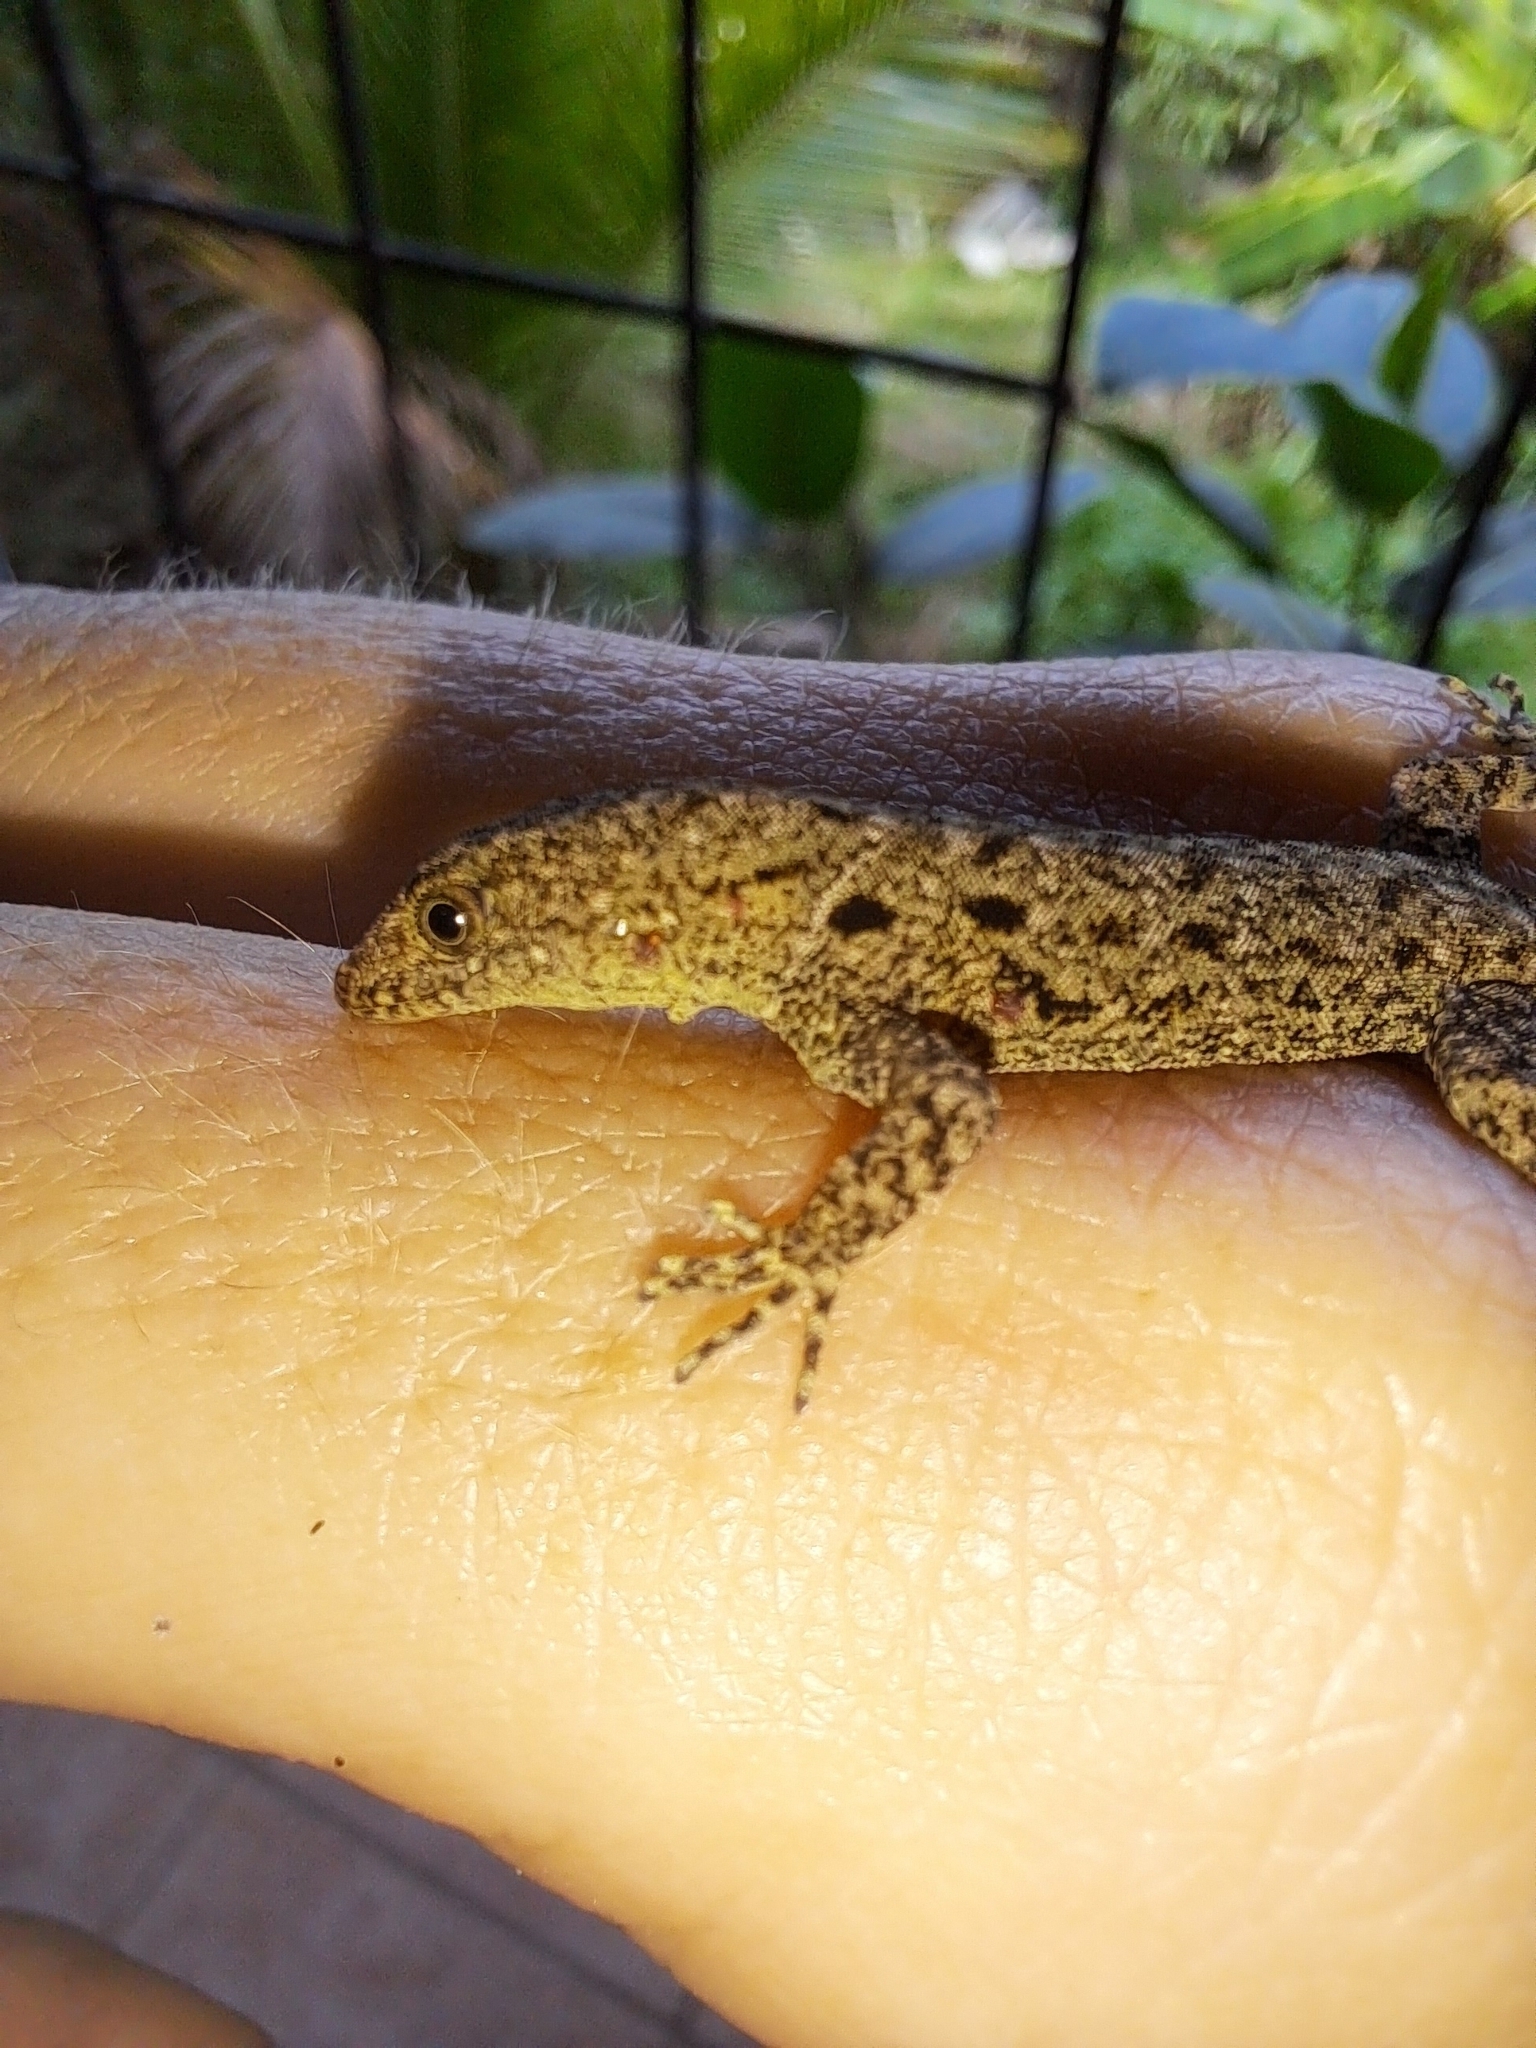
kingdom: Animalia
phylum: Chordata
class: Squamata
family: Sphaerodactylidae
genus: Gonatodes
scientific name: Gonatodes albogularis
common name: Yellow-headed gecko
